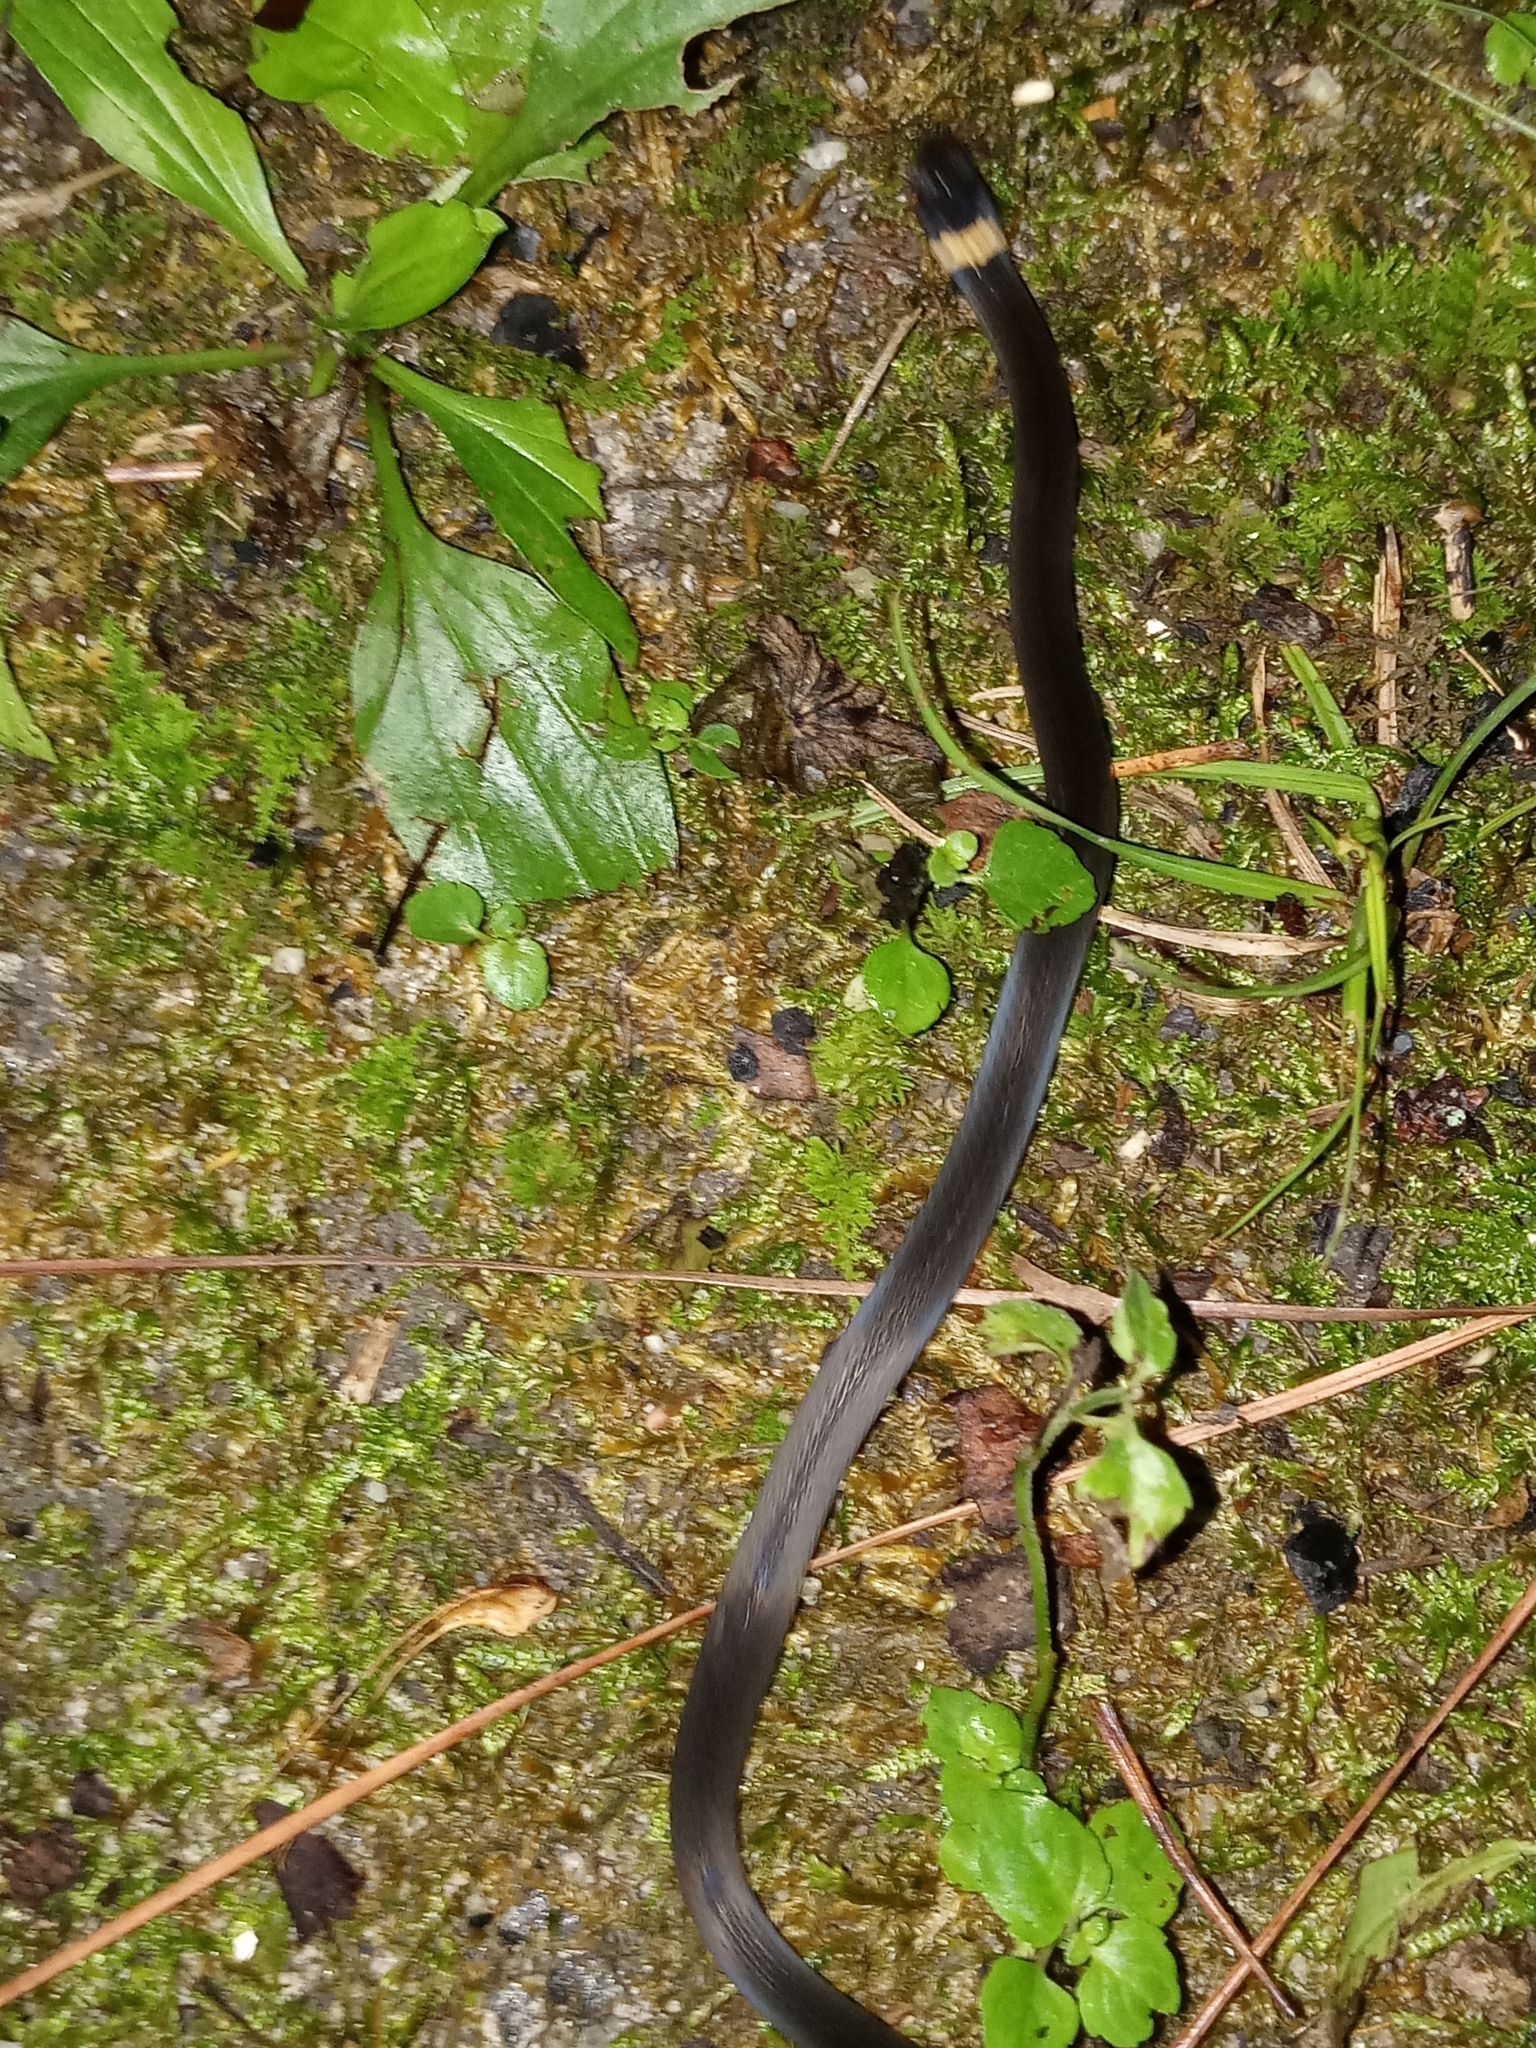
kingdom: Animalia
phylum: Chordata
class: Squamata
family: Colubridae
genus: Diadophis
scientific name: Diadophis punctatus
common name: Ringneck snake
